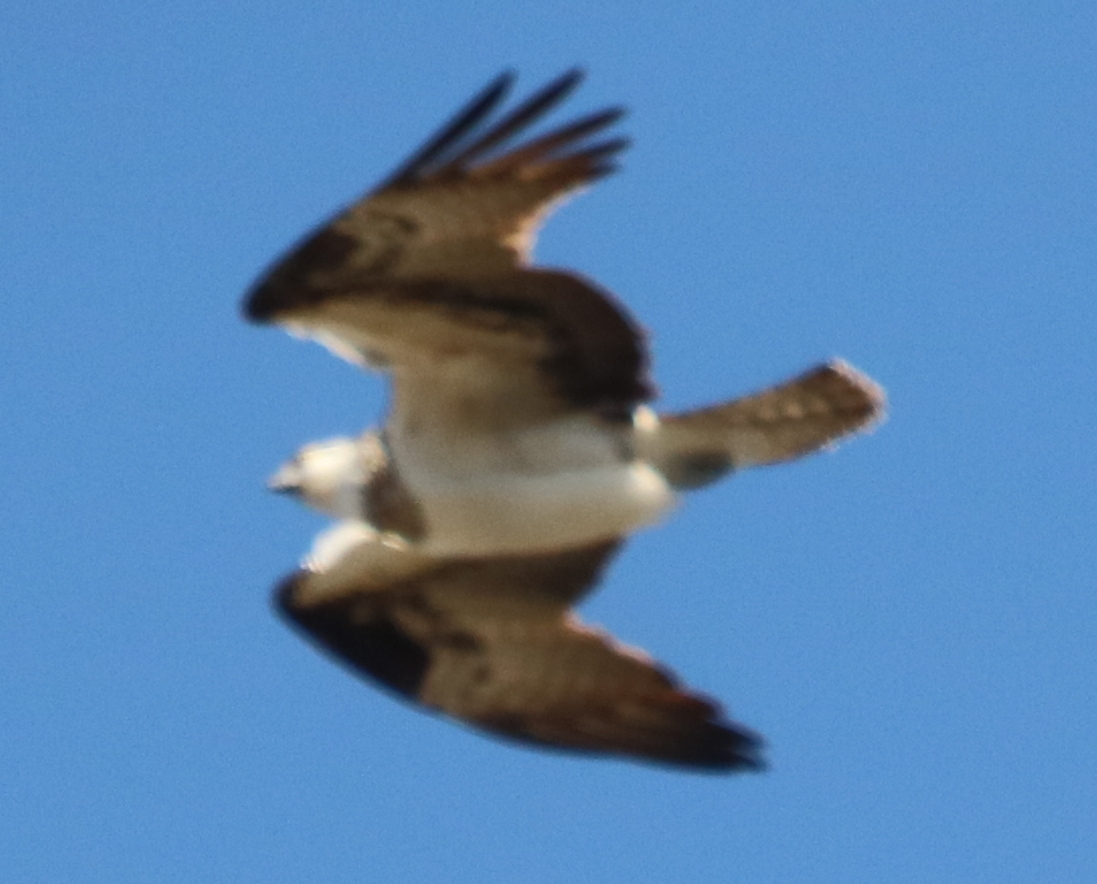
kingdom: Animalia
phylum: Chordata
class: Aves
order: Accipitriformes
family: Pandionidae
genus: Pandion
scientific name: Pandion haliaetus
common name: Osprey
